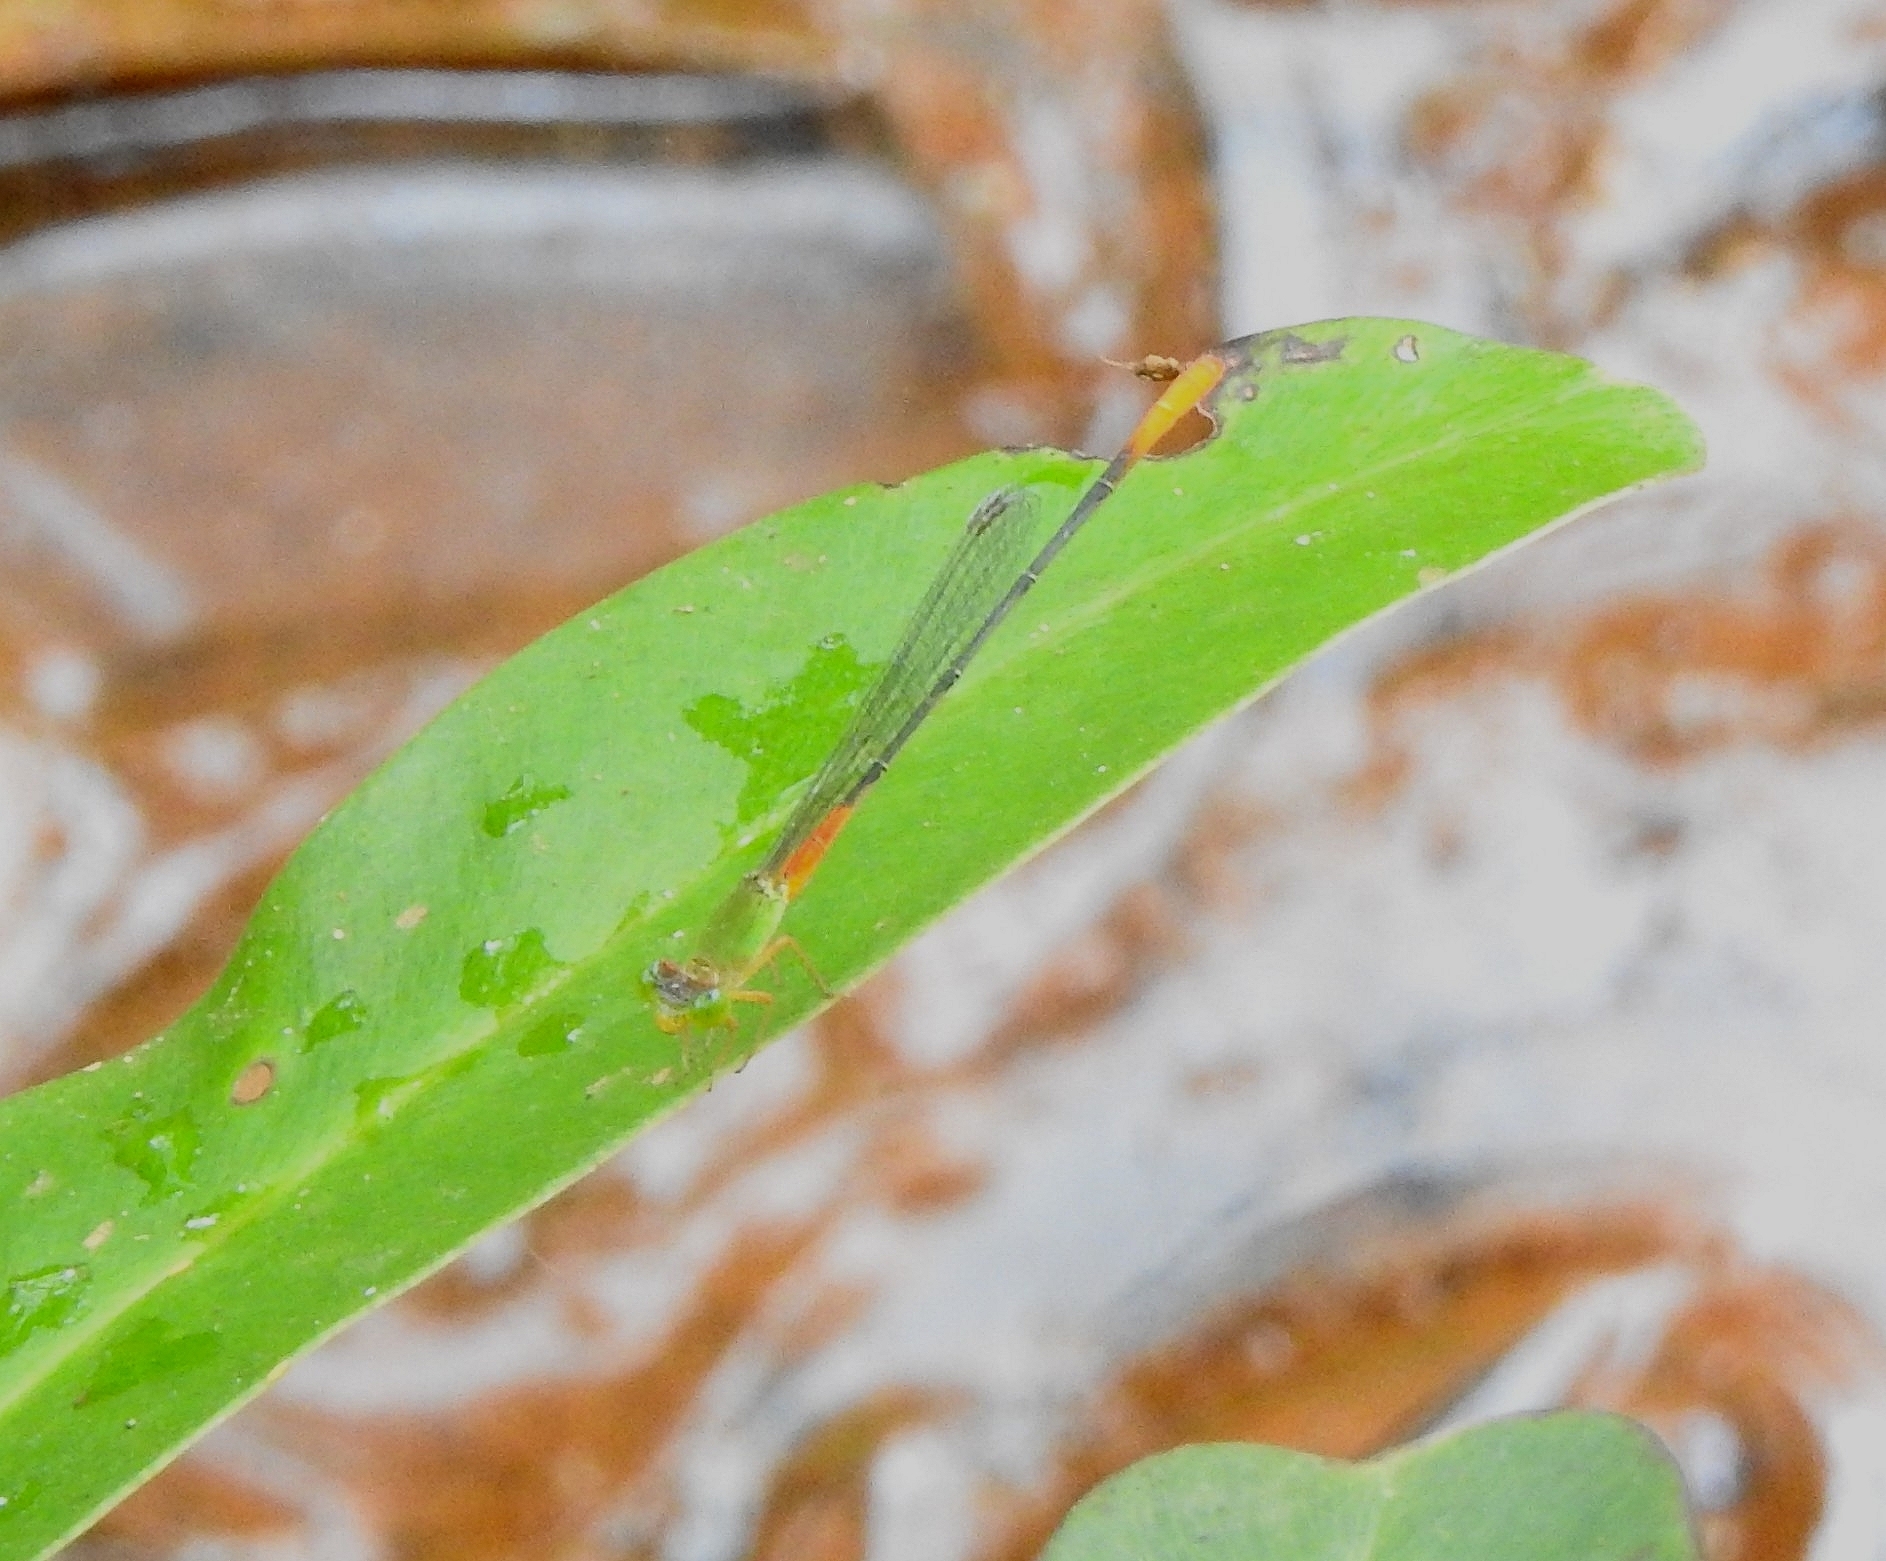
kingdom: Animalia
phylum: Arthropoda
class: Insecta
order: Odonata
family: Coenagrionidae
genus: Ceriagrion
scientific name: Ceriagrion cerinorubellum
